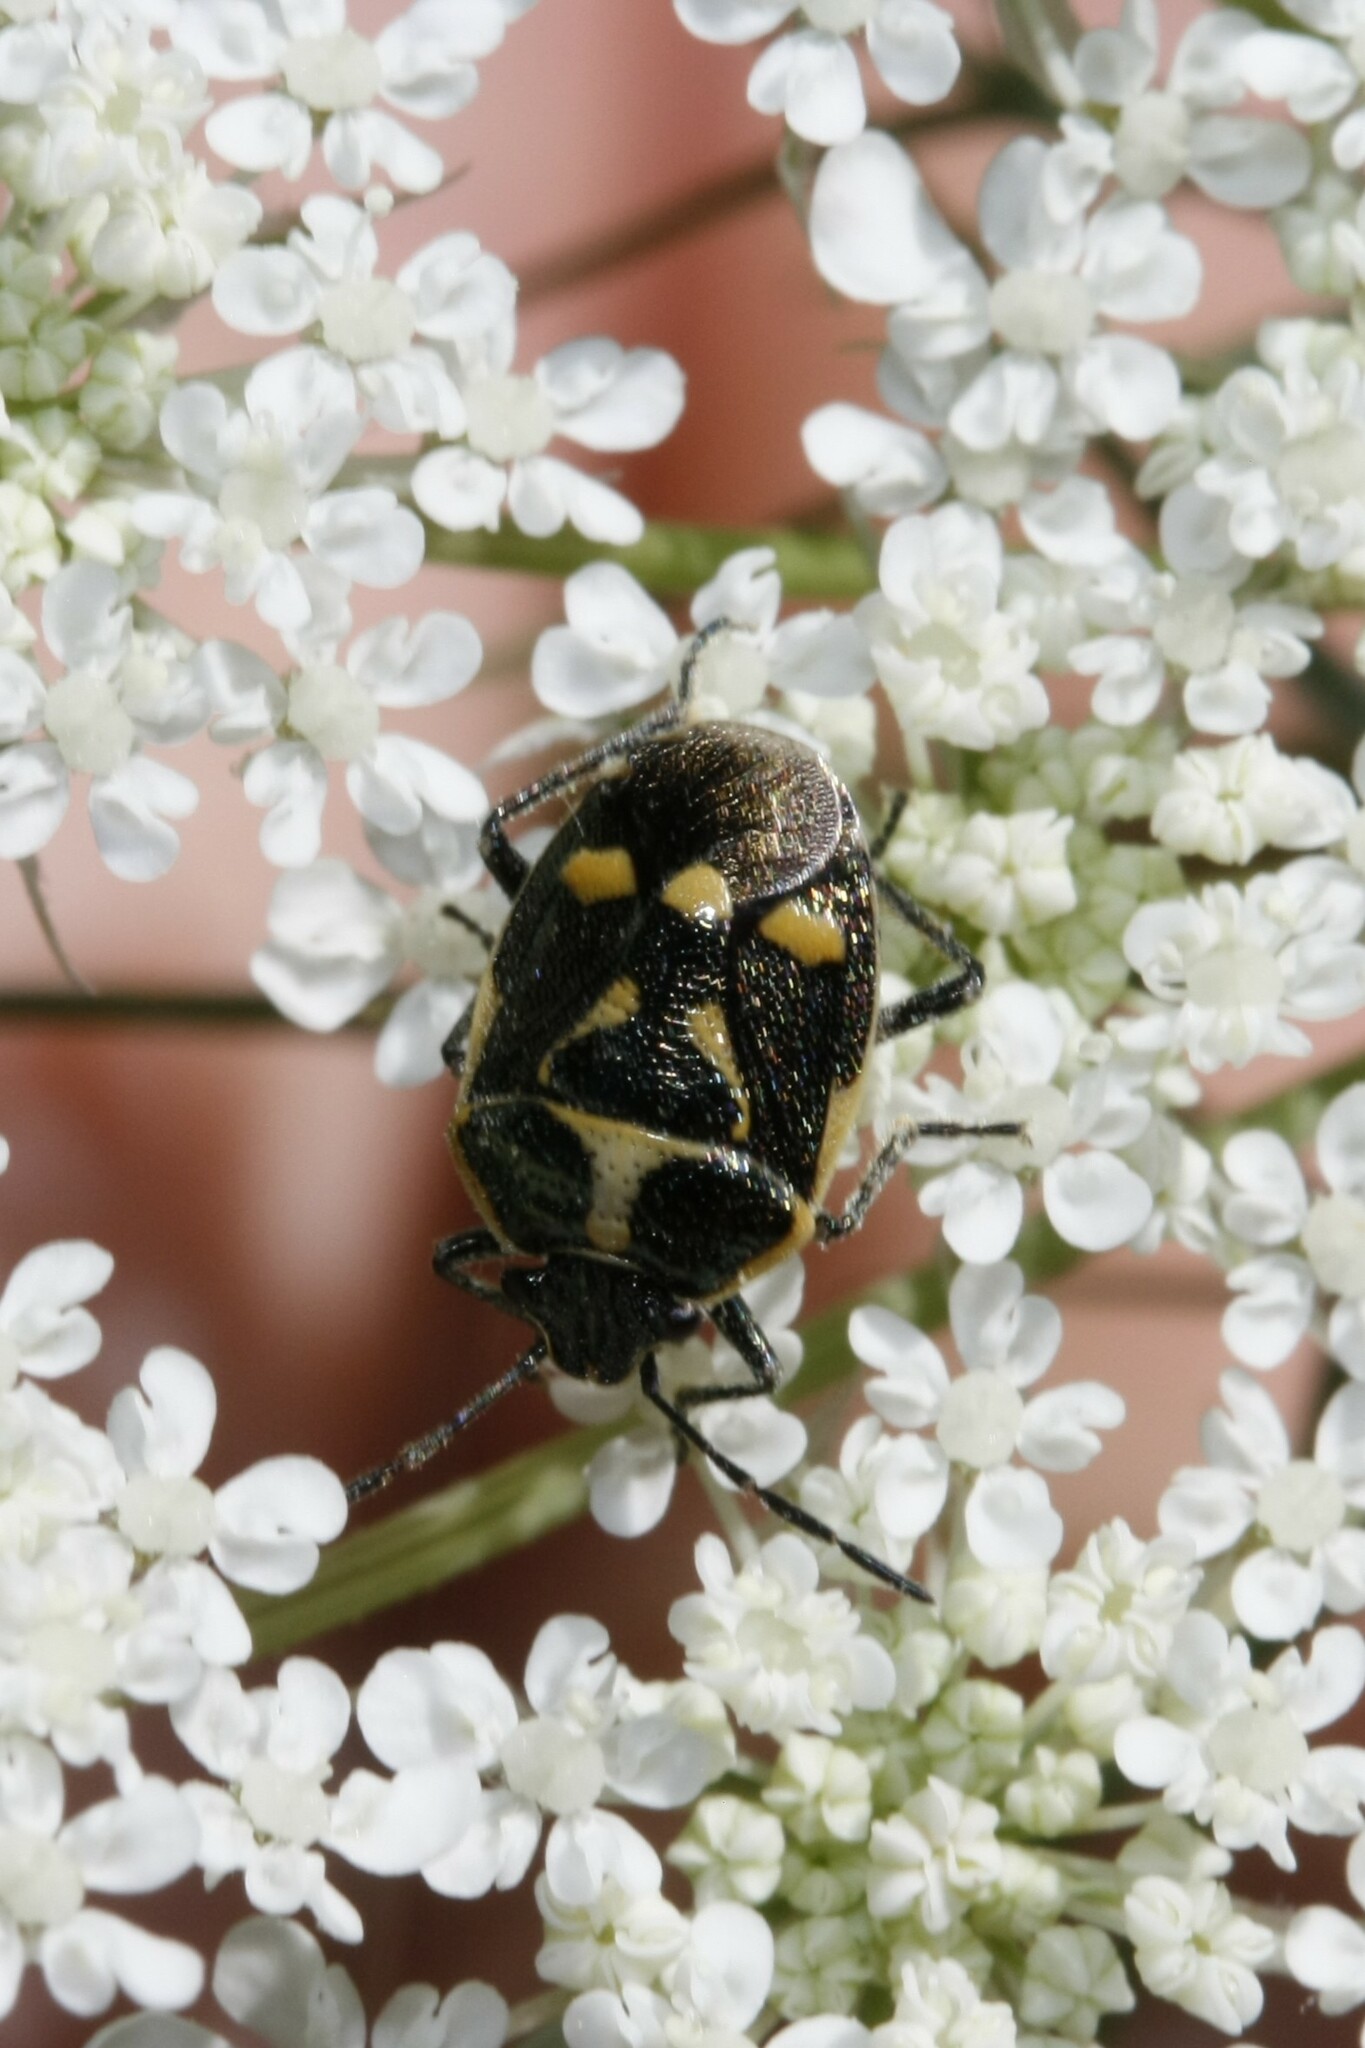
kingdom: Animalia
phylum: Arthropoda
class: Insecta
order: Hemiptera
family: Pentatomidae
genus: Eurydema
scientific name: Eurydema oleracea
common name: Cabbage bug
